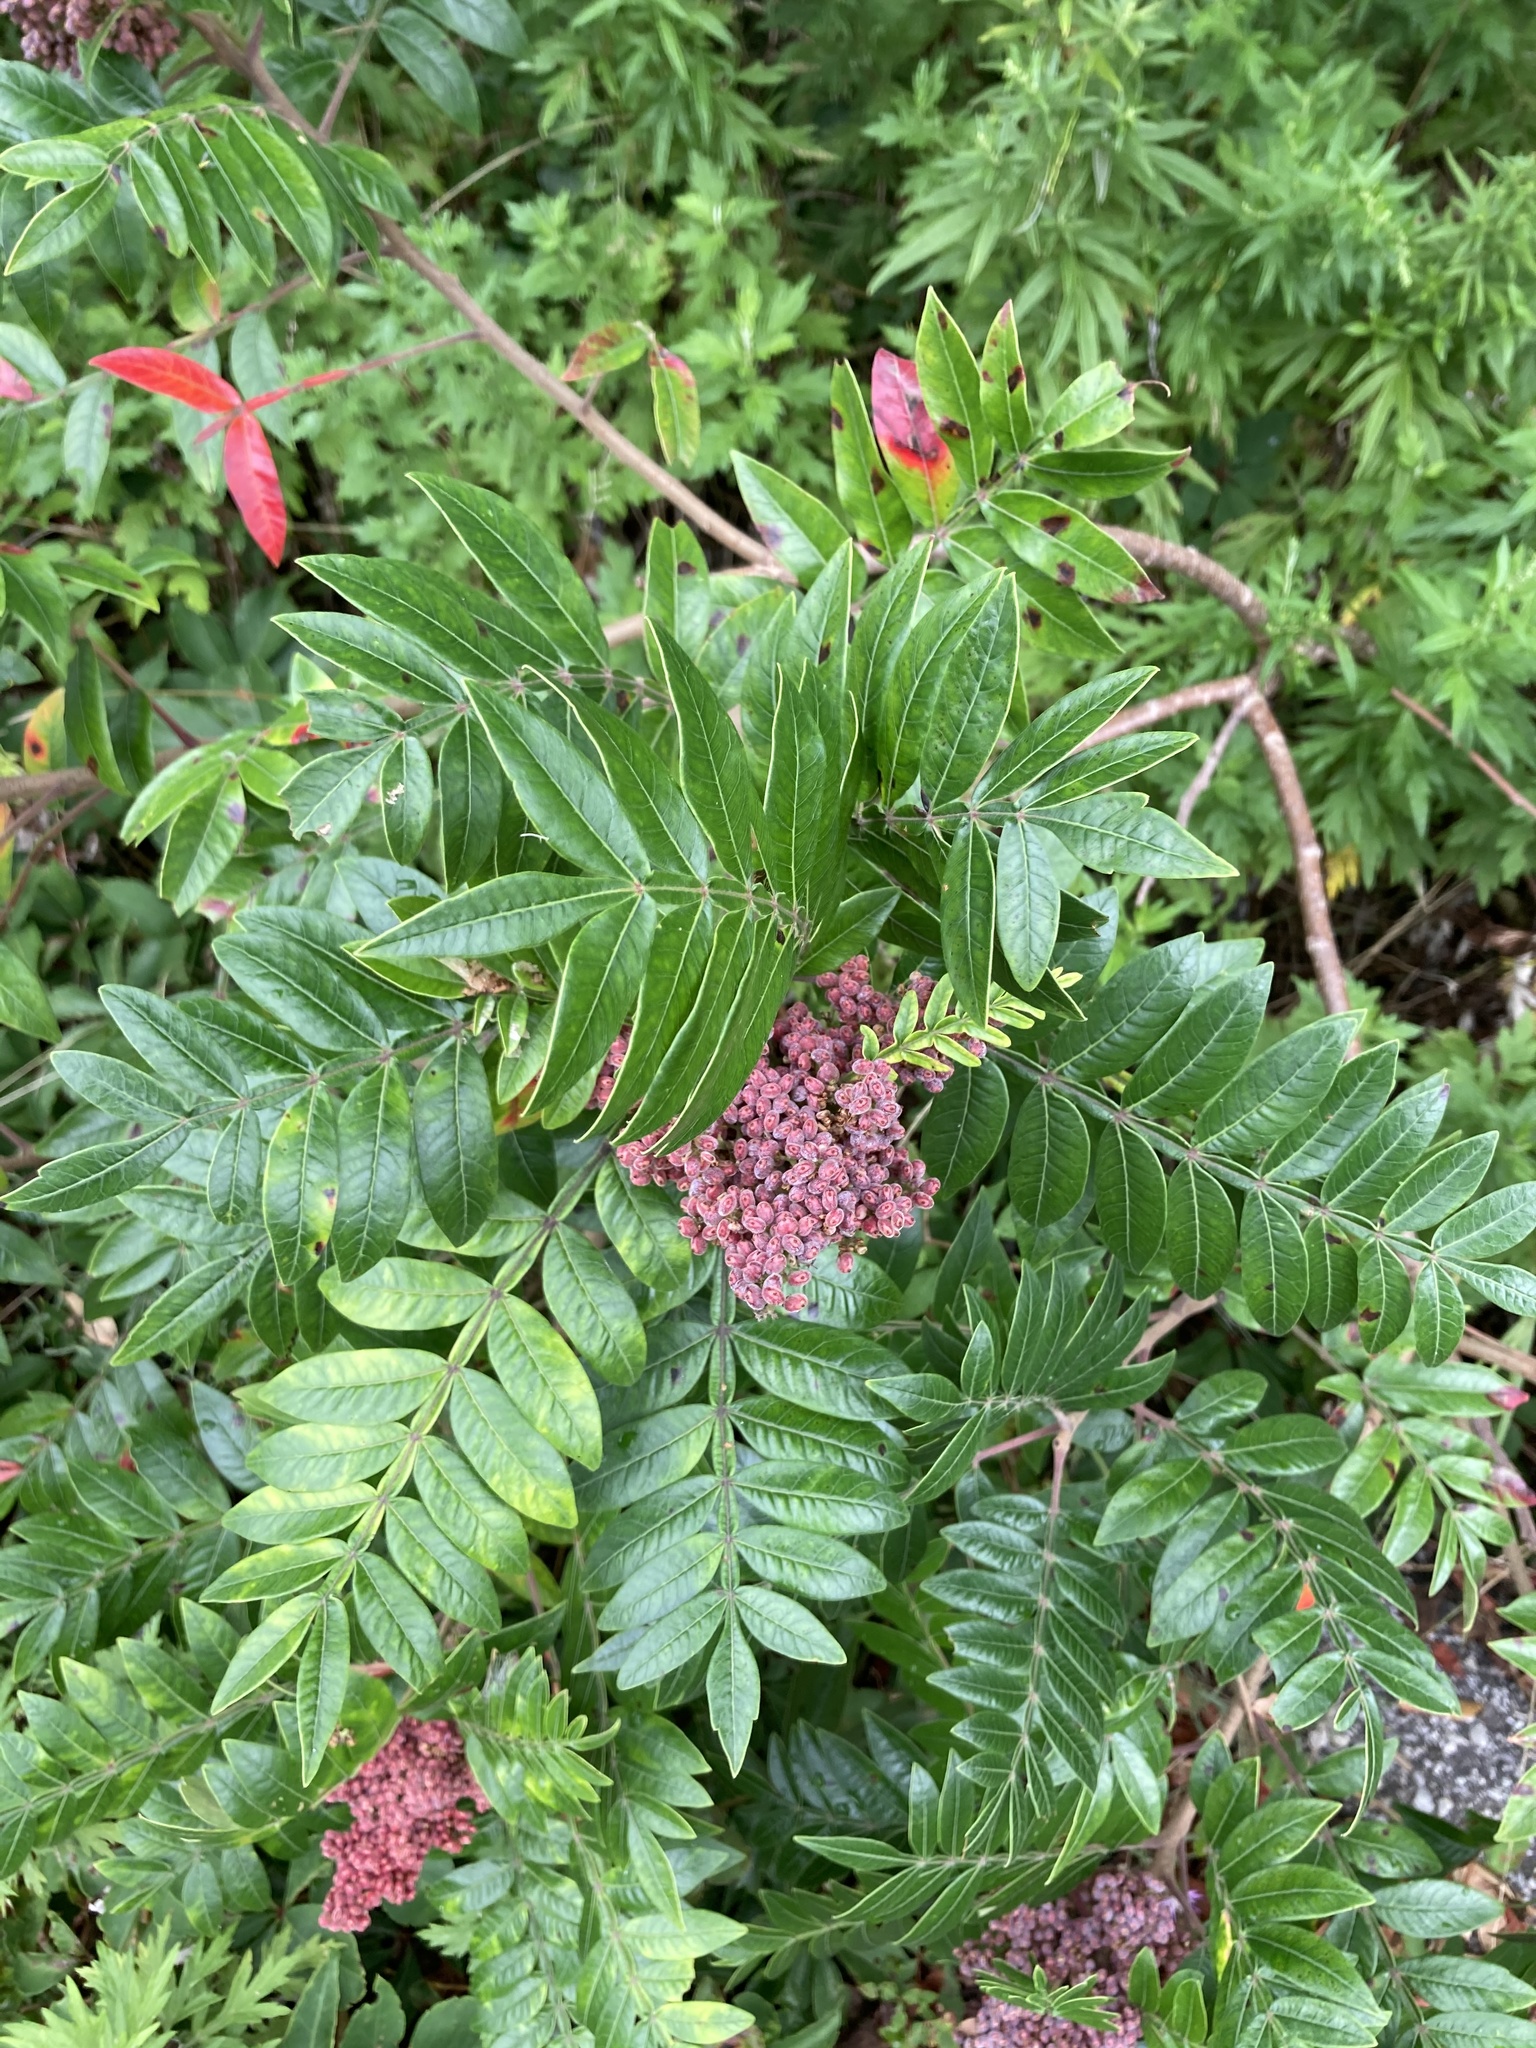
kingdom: Plantae
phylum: Tracheophyta
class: Magnoliopsida
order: Sapindales
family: Anacardiaceae
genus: Rhus
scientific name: Rhus copallina
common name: Shining sumac
